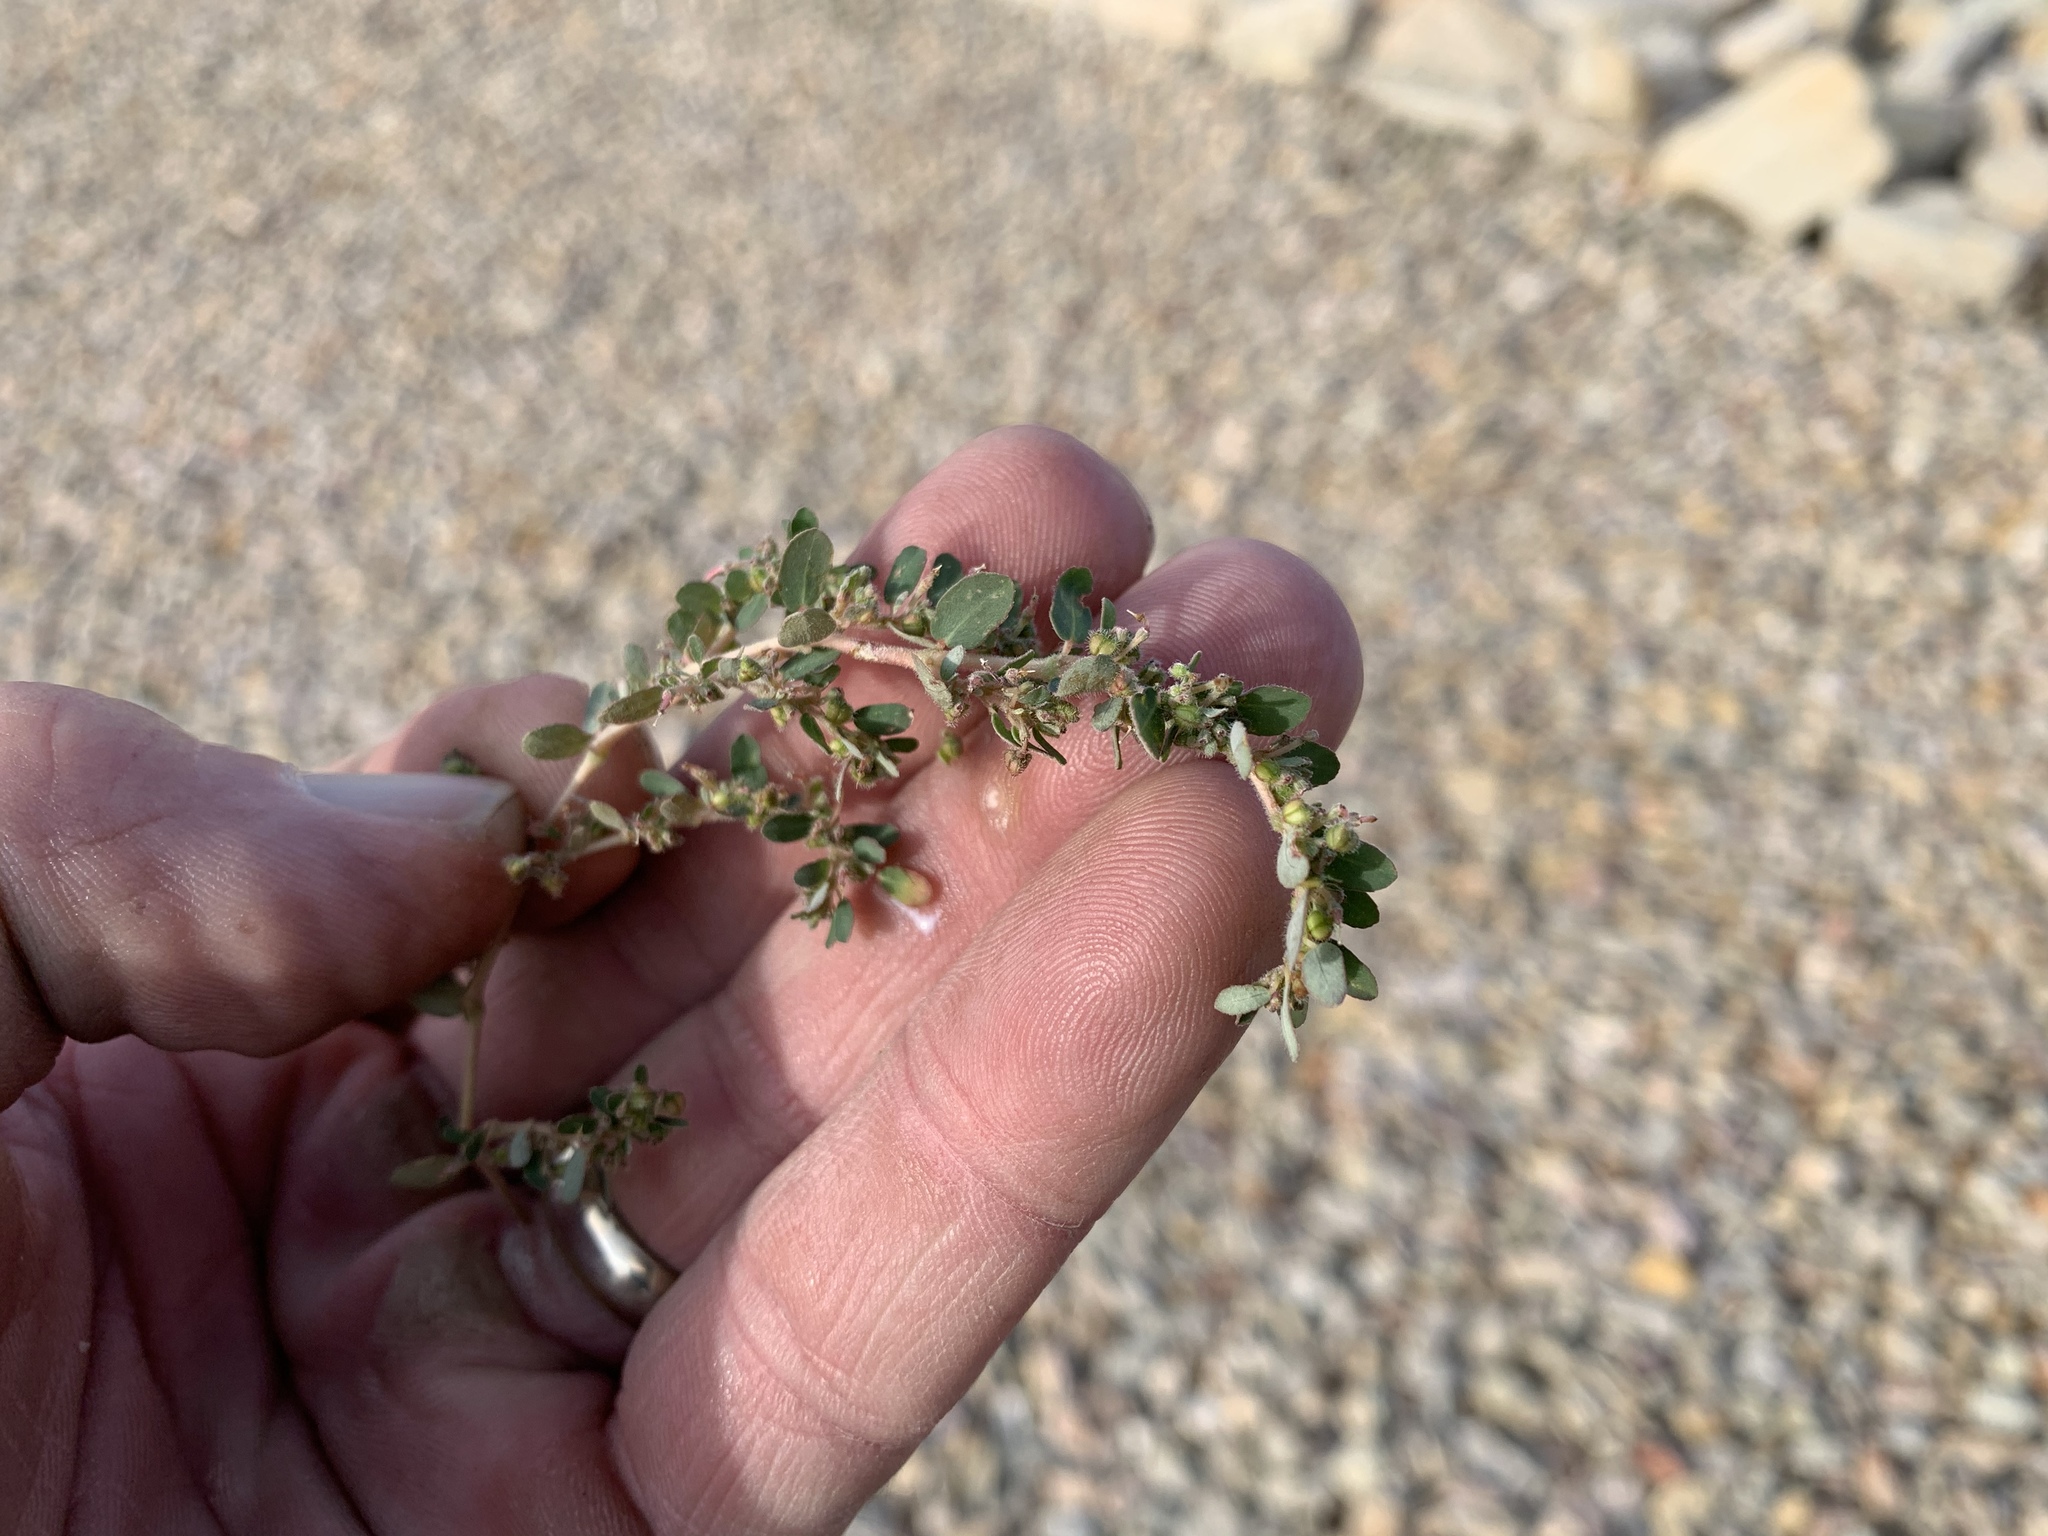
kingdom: Plantae
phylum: Tracheophyta
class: Magnoliopsida
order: Malpighiales
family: Euphorbiaceae
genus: Euphorbia
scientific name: Euphorbia prostrata
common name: Prostrate sandmat
